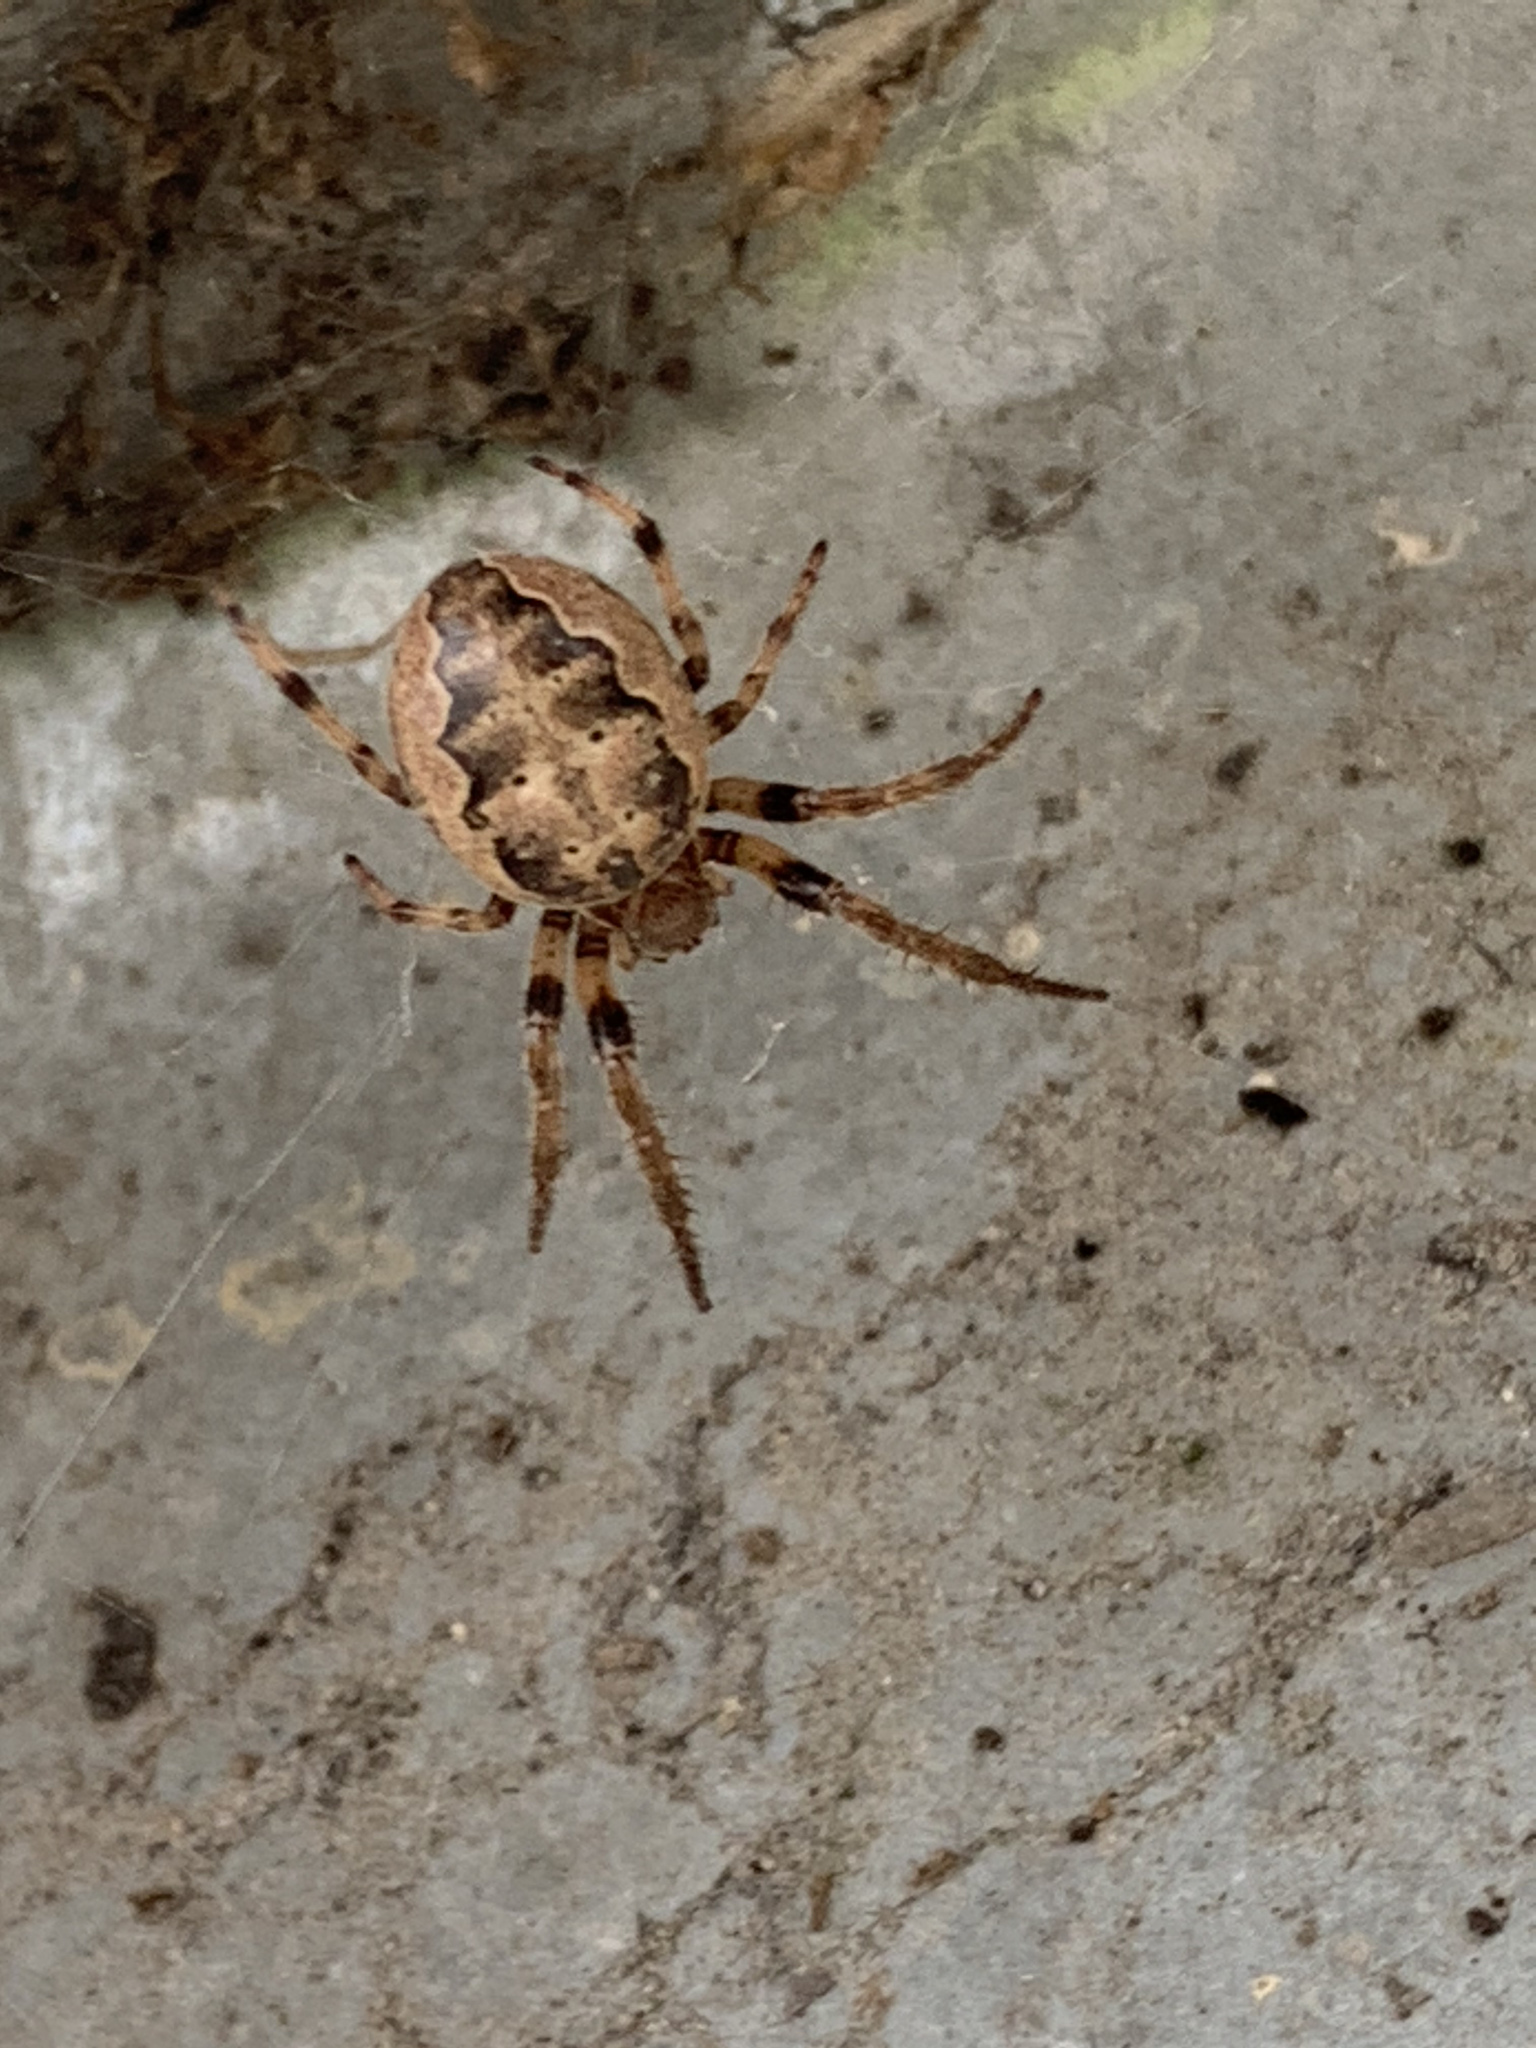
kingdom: Animalia
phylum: Arthropoda
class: Arachnida
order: Araneae
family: Araneidae
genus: Larinioides
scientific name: Larinioides cornutus
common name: Furrow orbweaver
